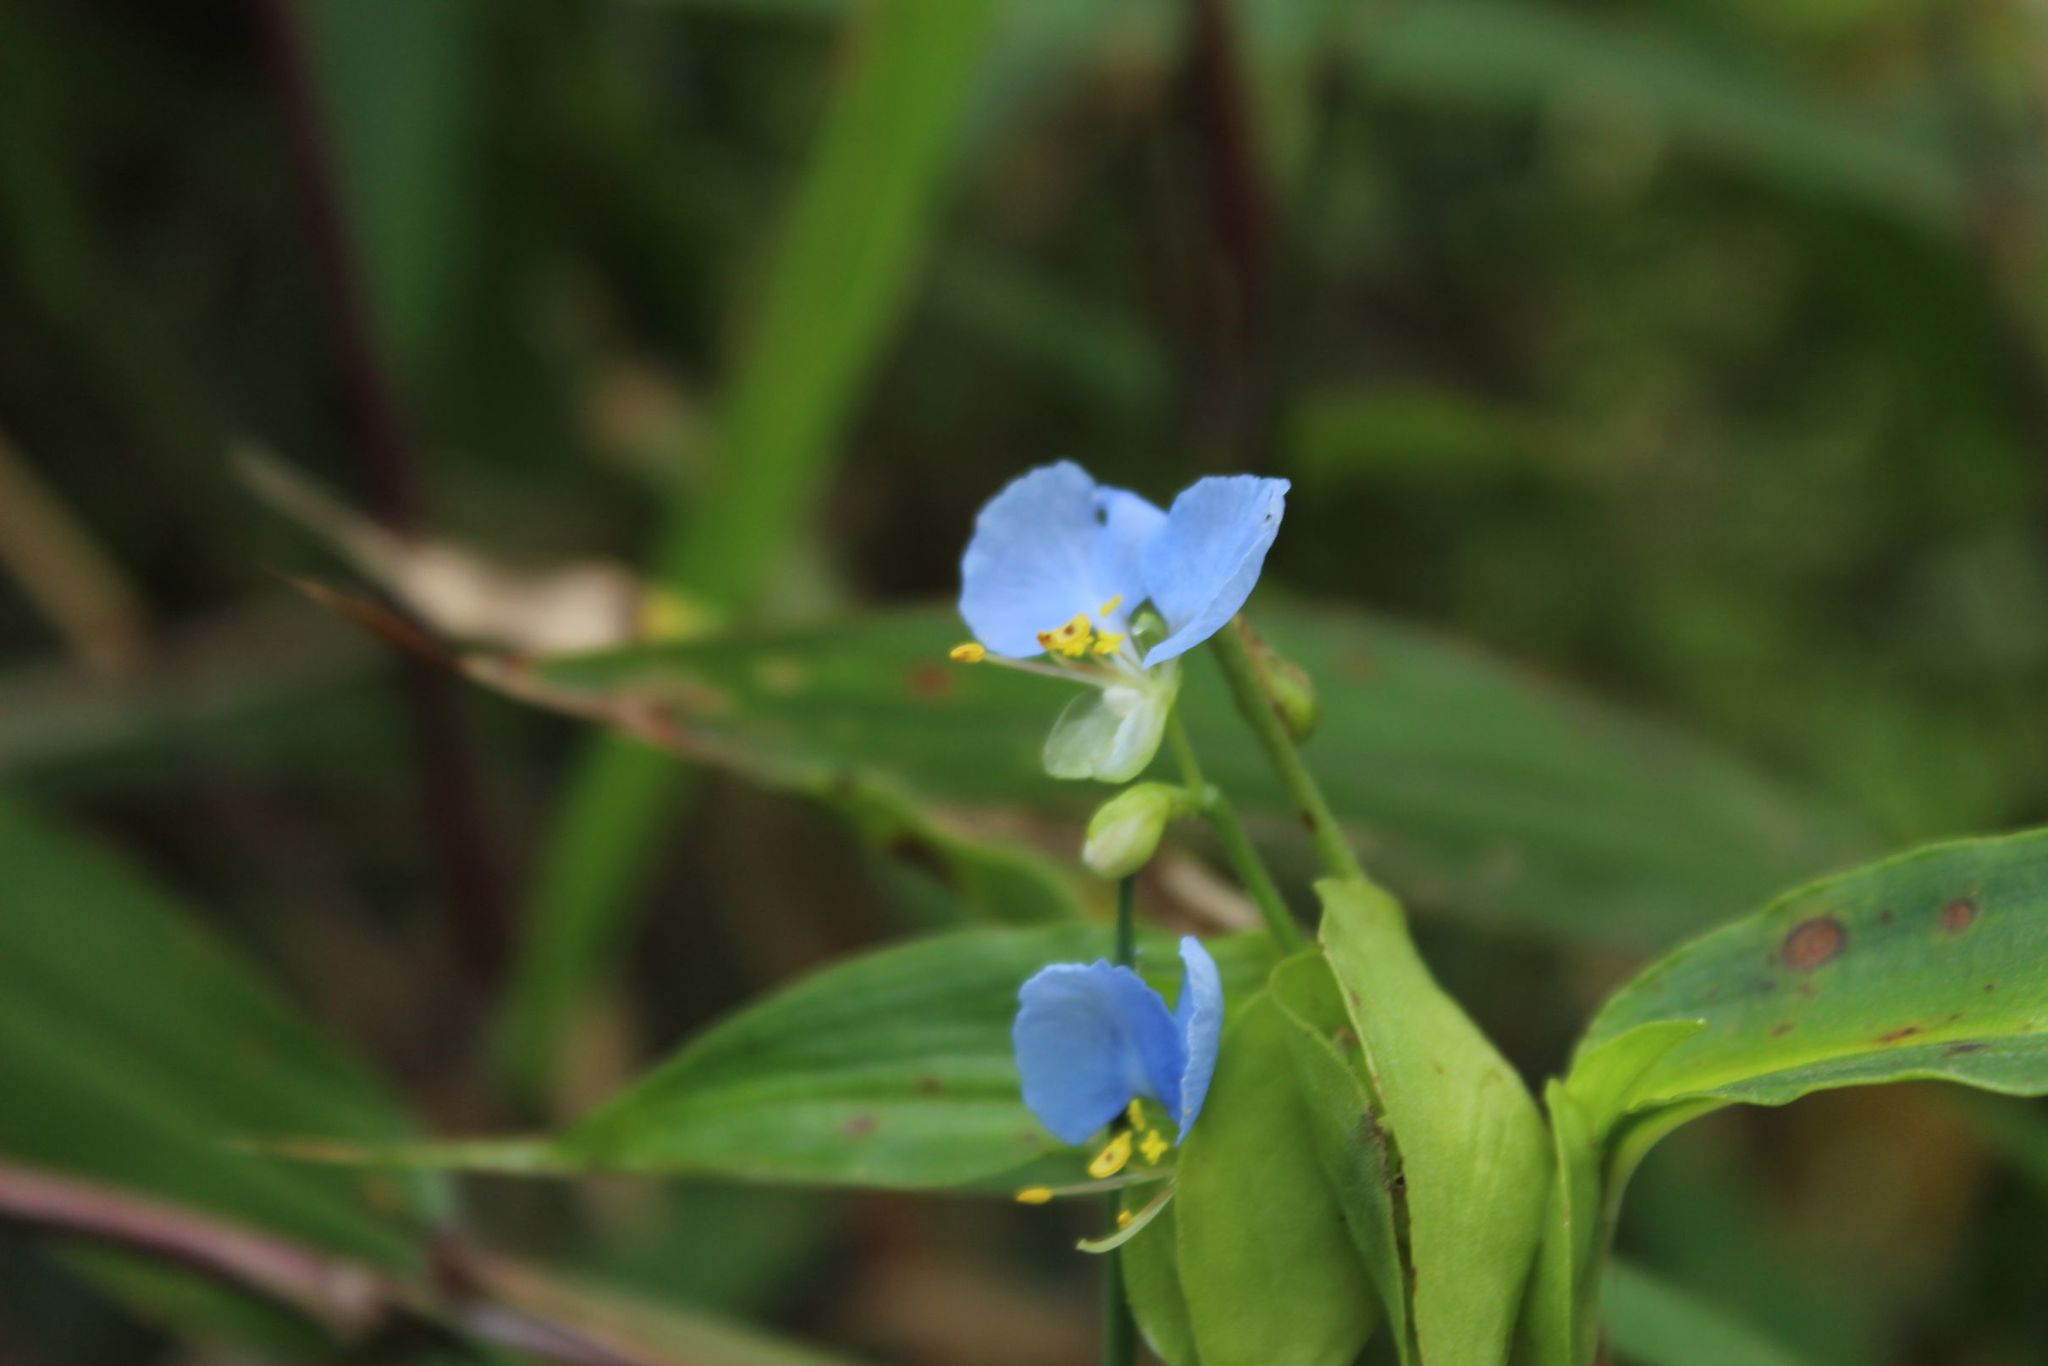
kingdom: Plantae
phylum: Tracheophyta
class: Liliopsida
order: Commelinales
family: Commelinaceae
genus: Commelina
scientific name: Commelina diffusa
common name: Climbing dayflower
